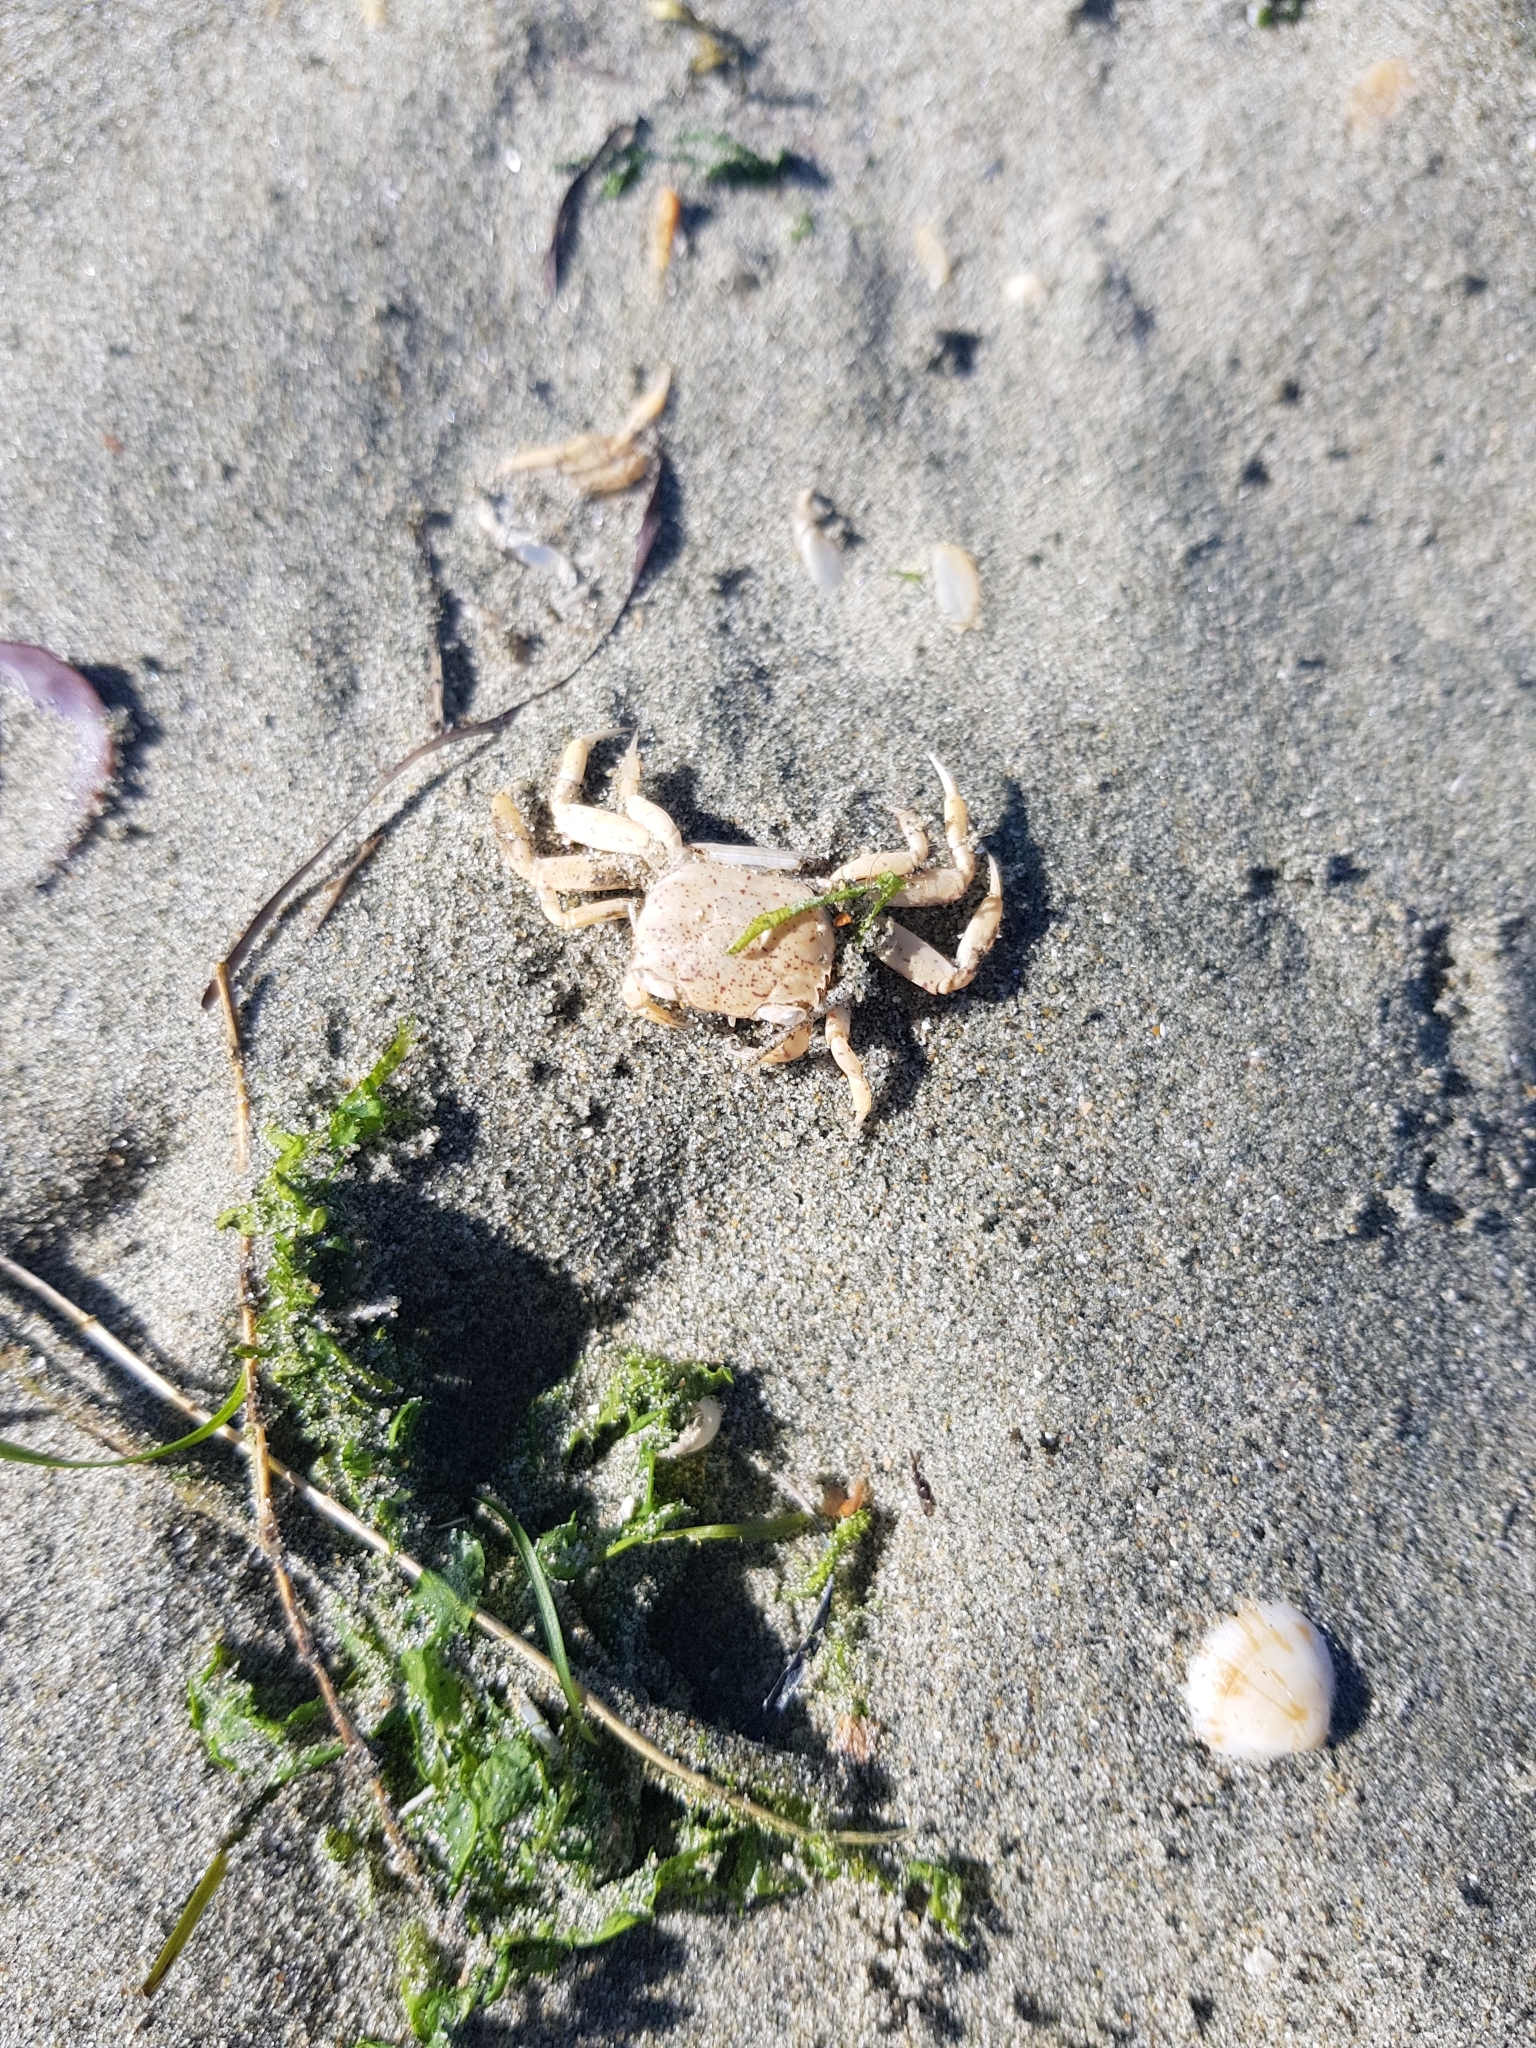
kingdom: Animalia
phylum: Arthropoda
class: Malacostraca
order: Decapoda
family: Macrophthalmidae
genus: Hemiplax
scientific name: Hemiplax hirtipes
